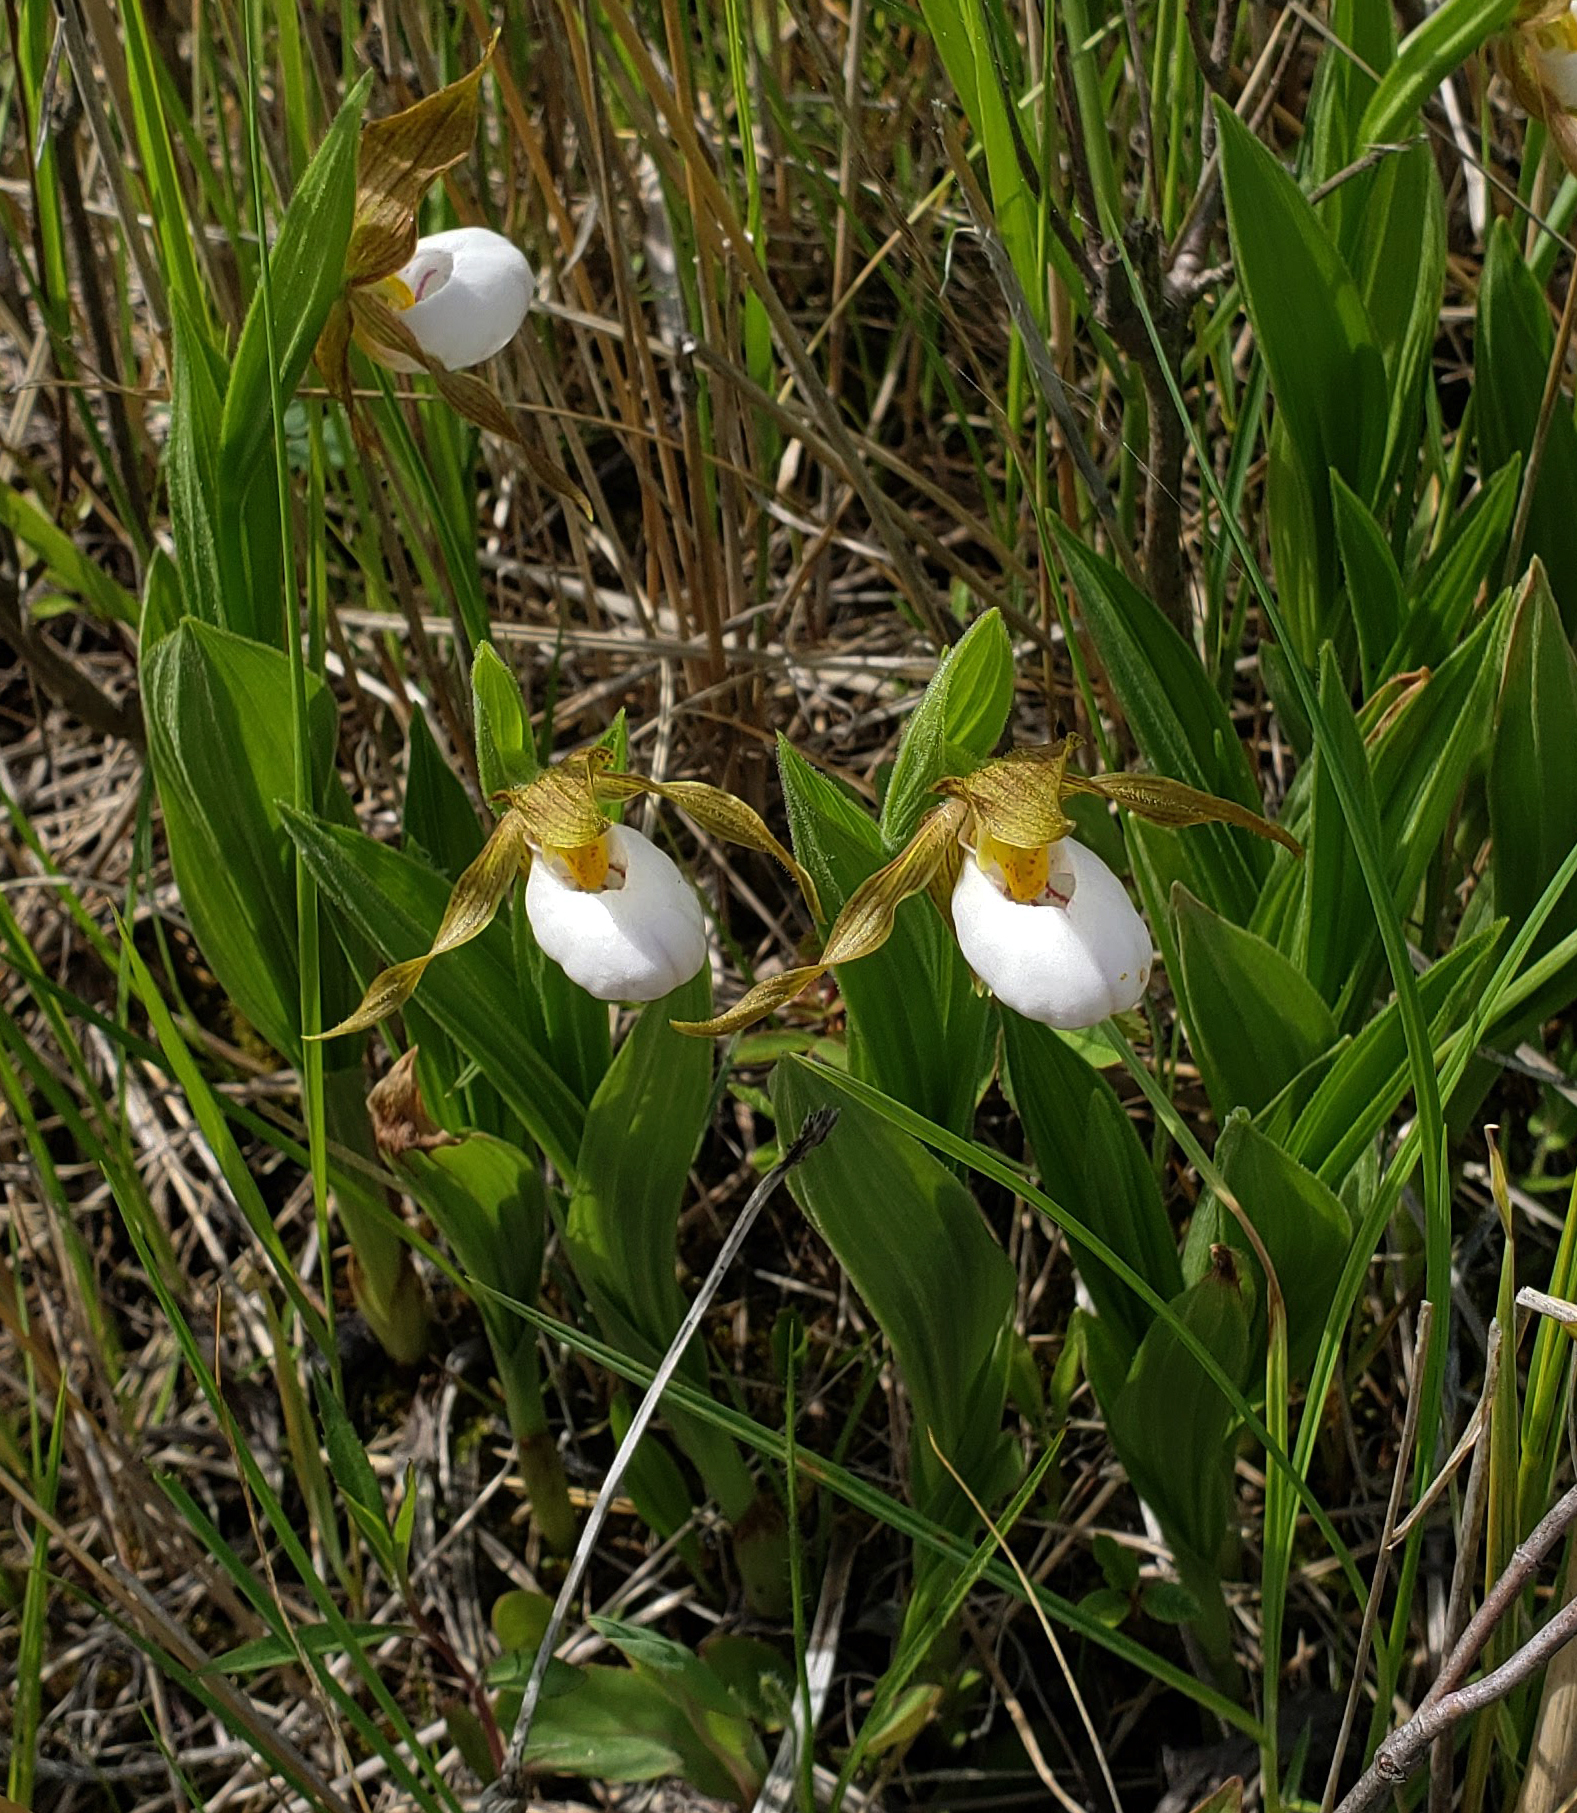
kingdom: Plantae
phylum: Tracheophyta
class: Liliopsida
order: Asparagales
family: Orchidaceae
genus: Cypripedium
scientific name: Cypripedium candidum
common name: White lady's-slipper
